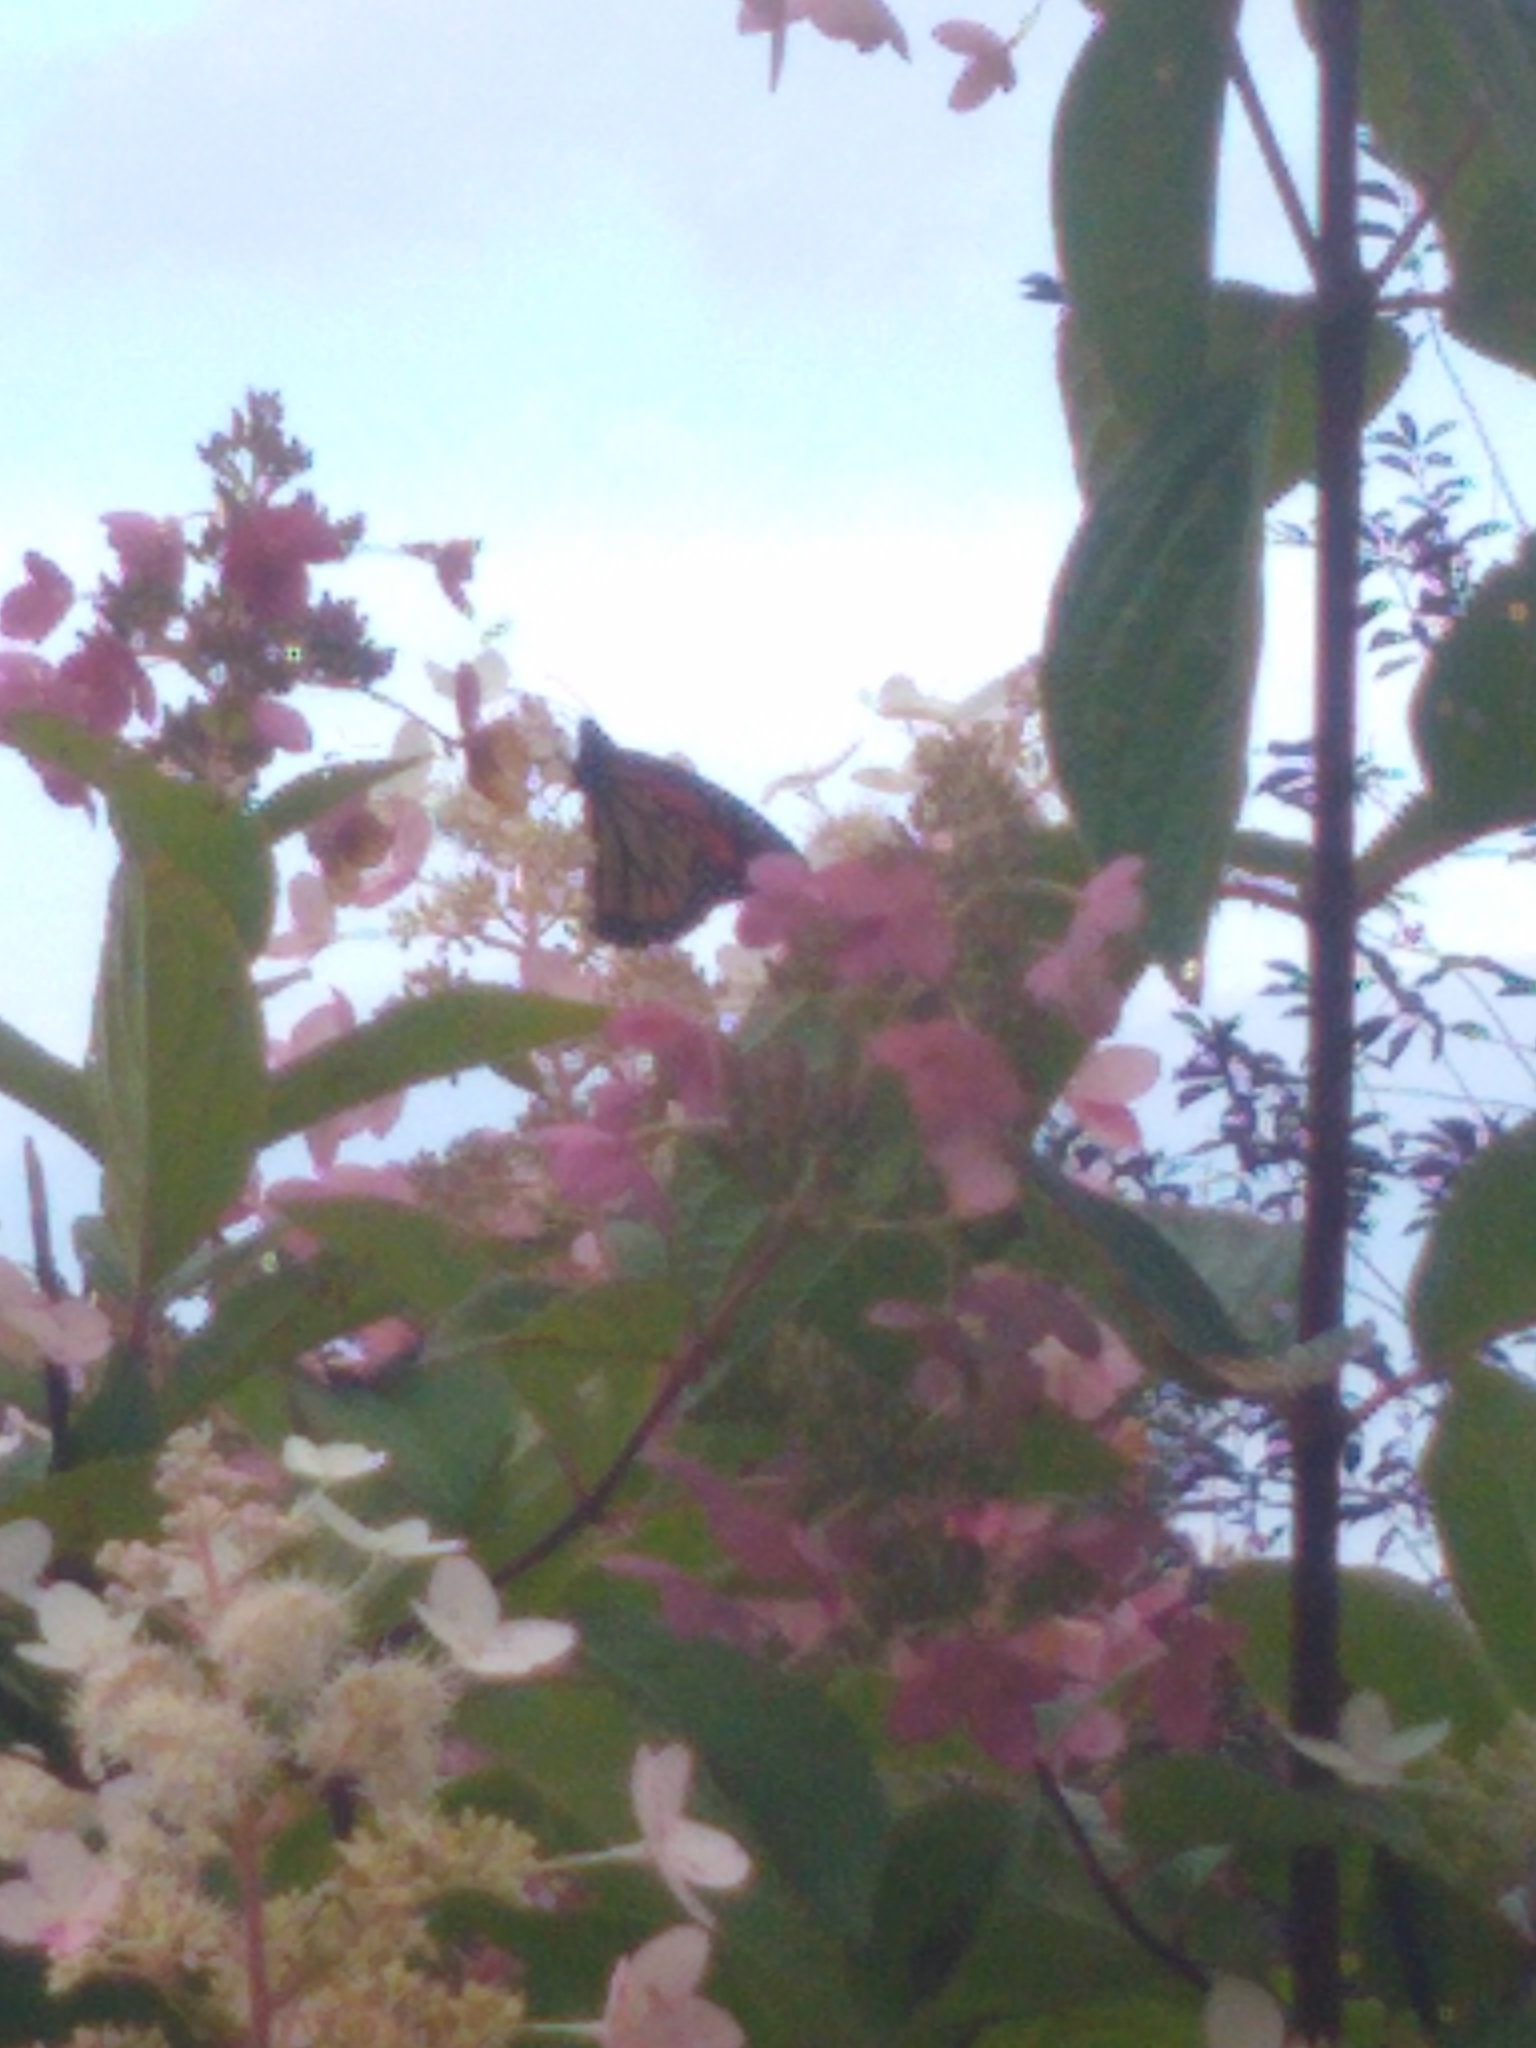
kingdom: Animalia
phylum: Arthropoda
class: Insecta
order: Lepidoptera
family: Nymphalidae
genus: Danaus
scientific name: Danaus plexippus
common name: Monarch
